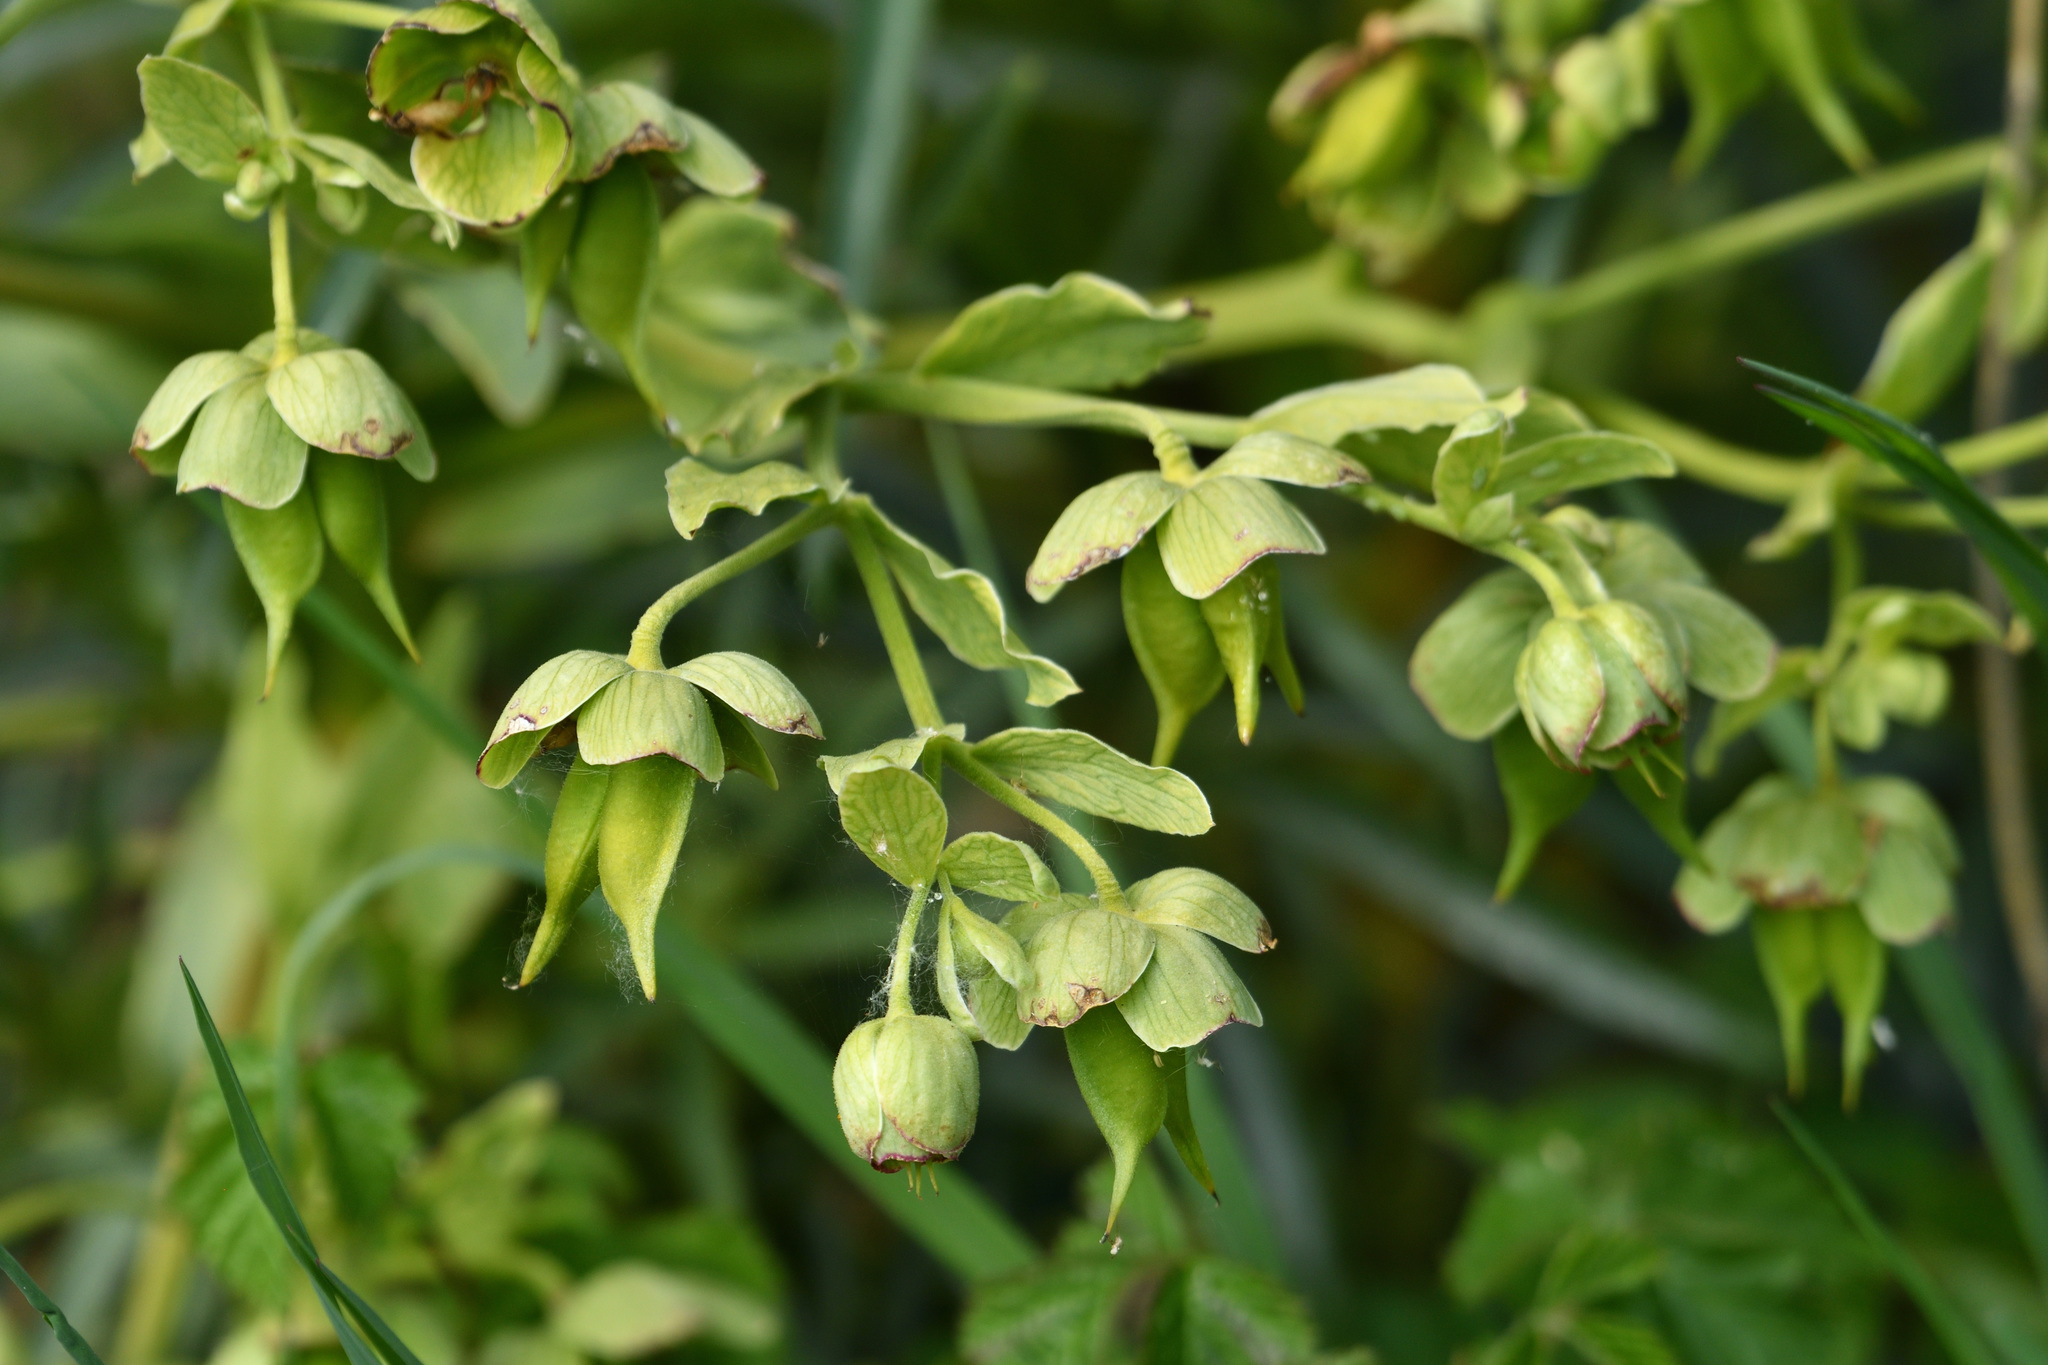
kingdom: Plantae
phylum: Tracheophyta
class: Magnoliopsida
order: Ranunculales
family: Ranunculaceae
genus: Helleborus
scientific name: Helleborus foetidus
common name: Stinking hellebore
